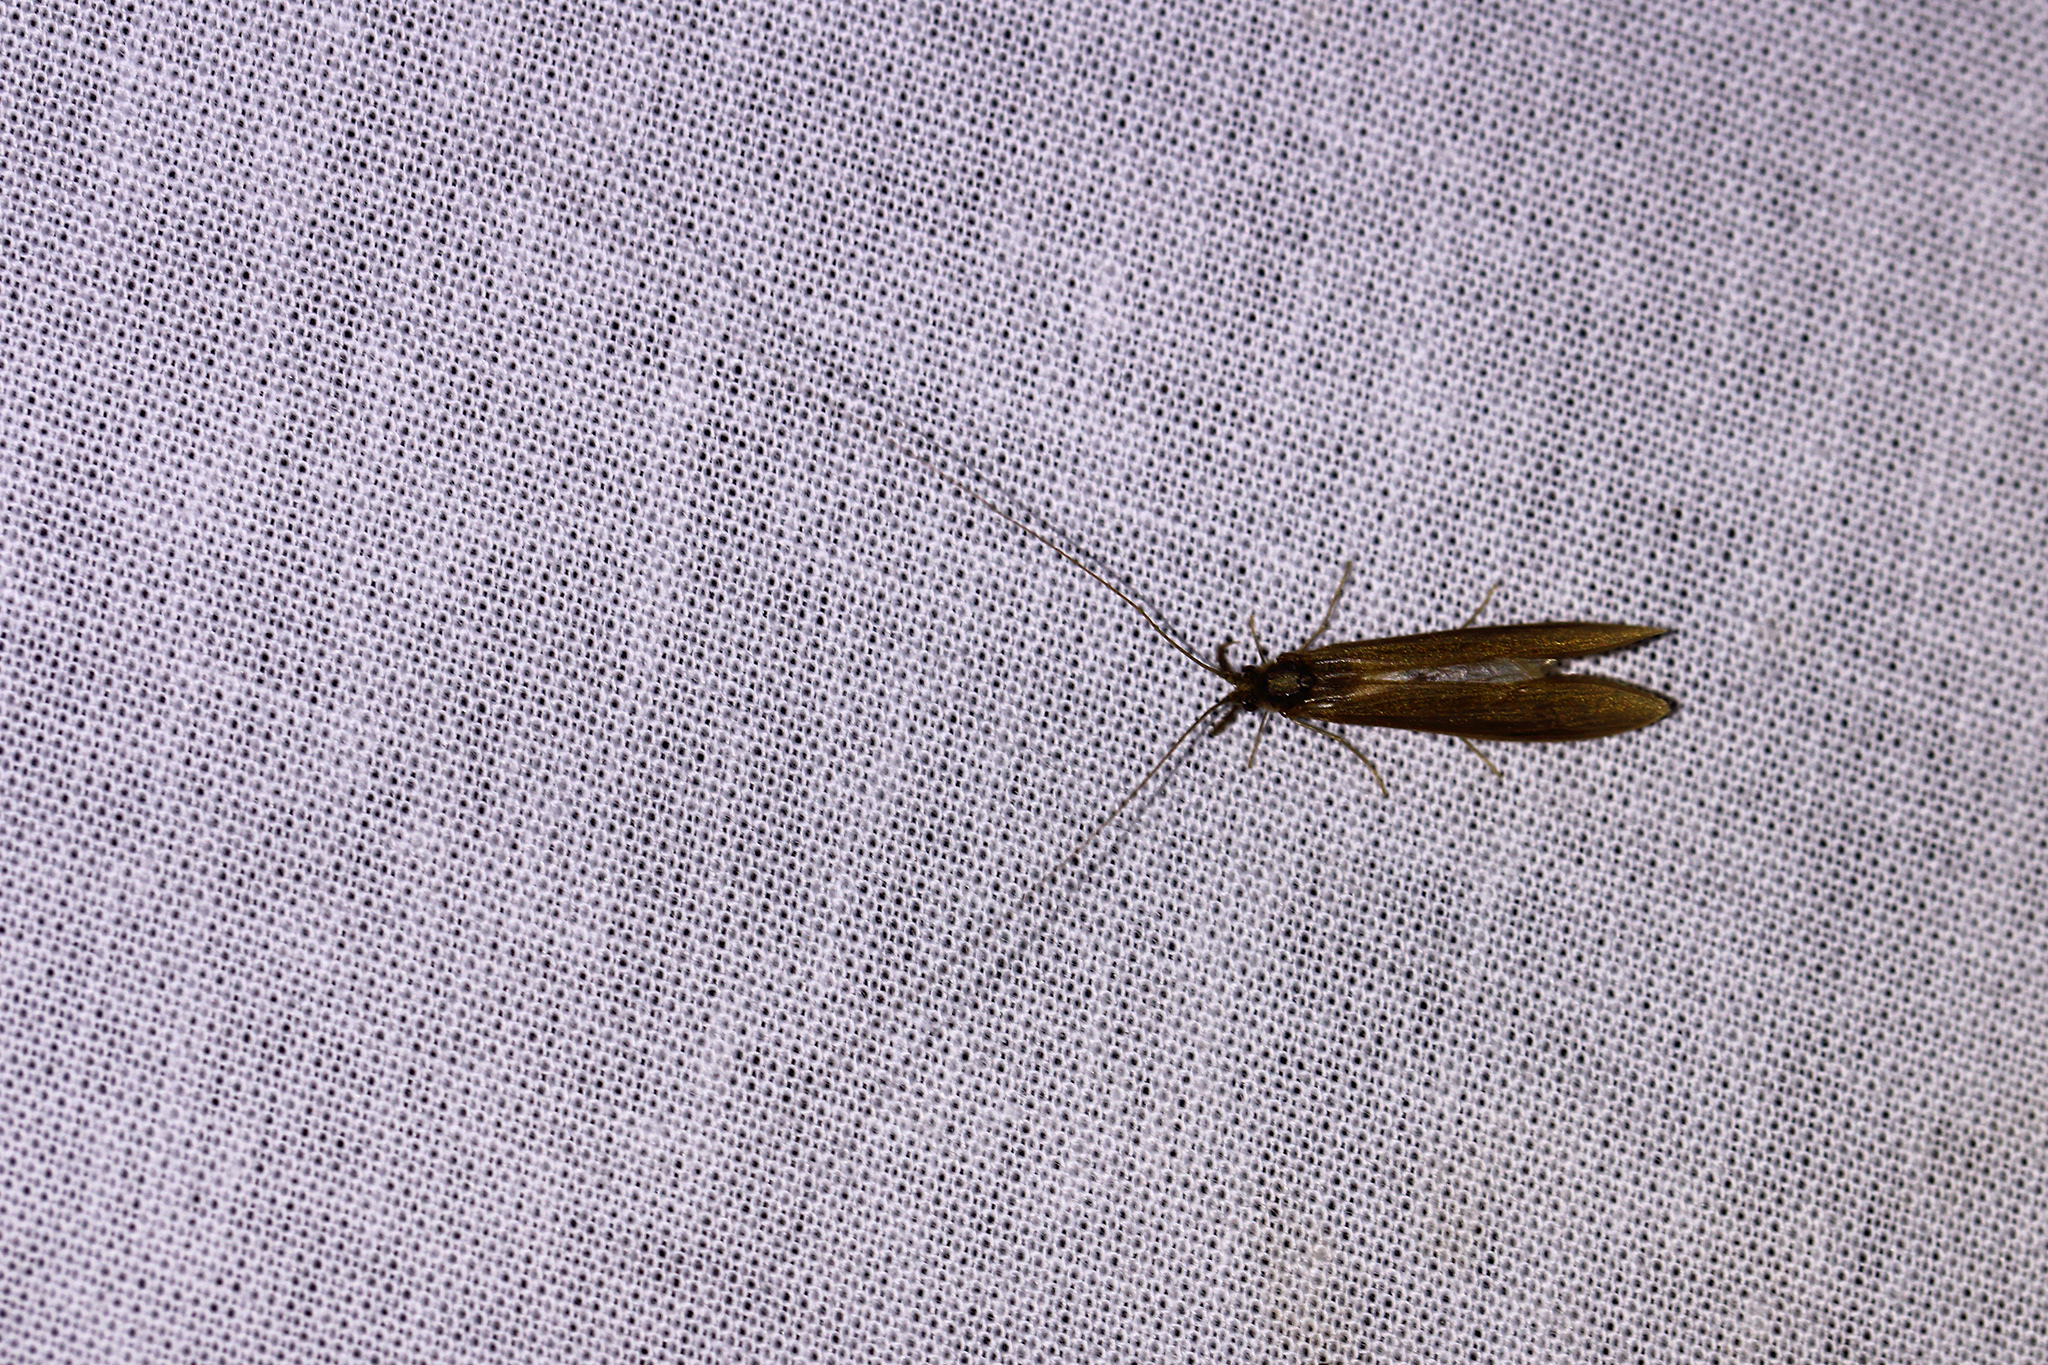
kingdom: Animalia
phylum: Arthropoda
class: Insecta
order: Trichoptera
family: Leptoceridae
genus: Oecetis
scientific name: Oecetis ochracea
